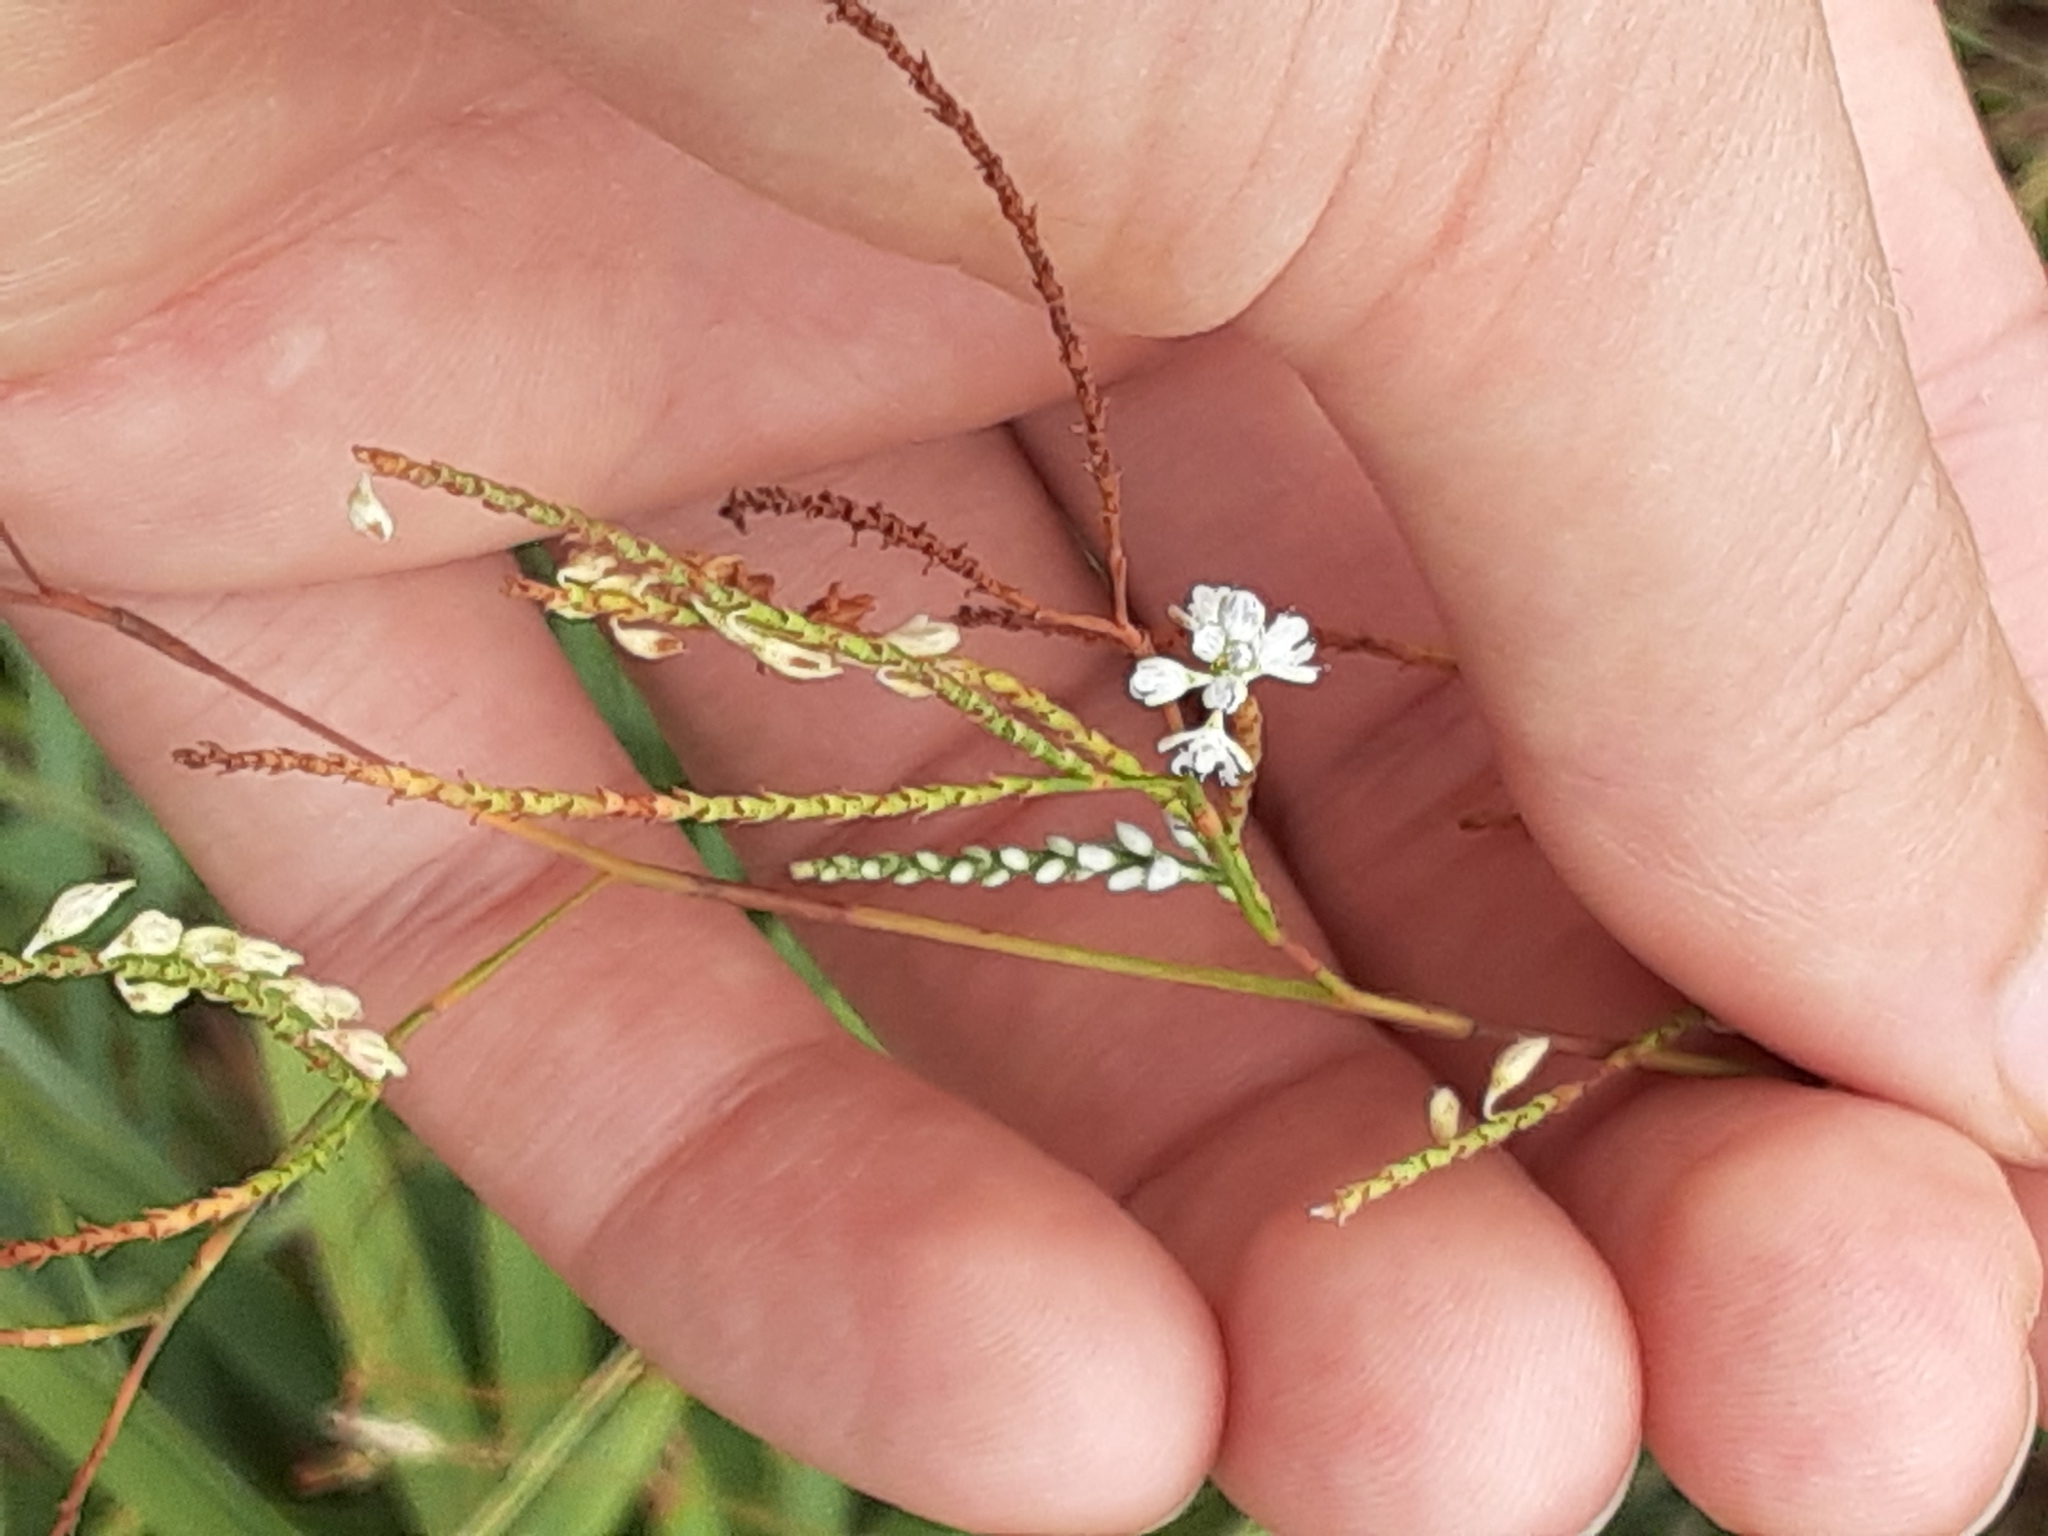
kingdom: Plantae
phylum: Tracheophyta
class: Magnoliopsida
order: Caryophyllales
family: Polygonaceae
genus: Polygonella
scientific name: Polygonella ciliata
